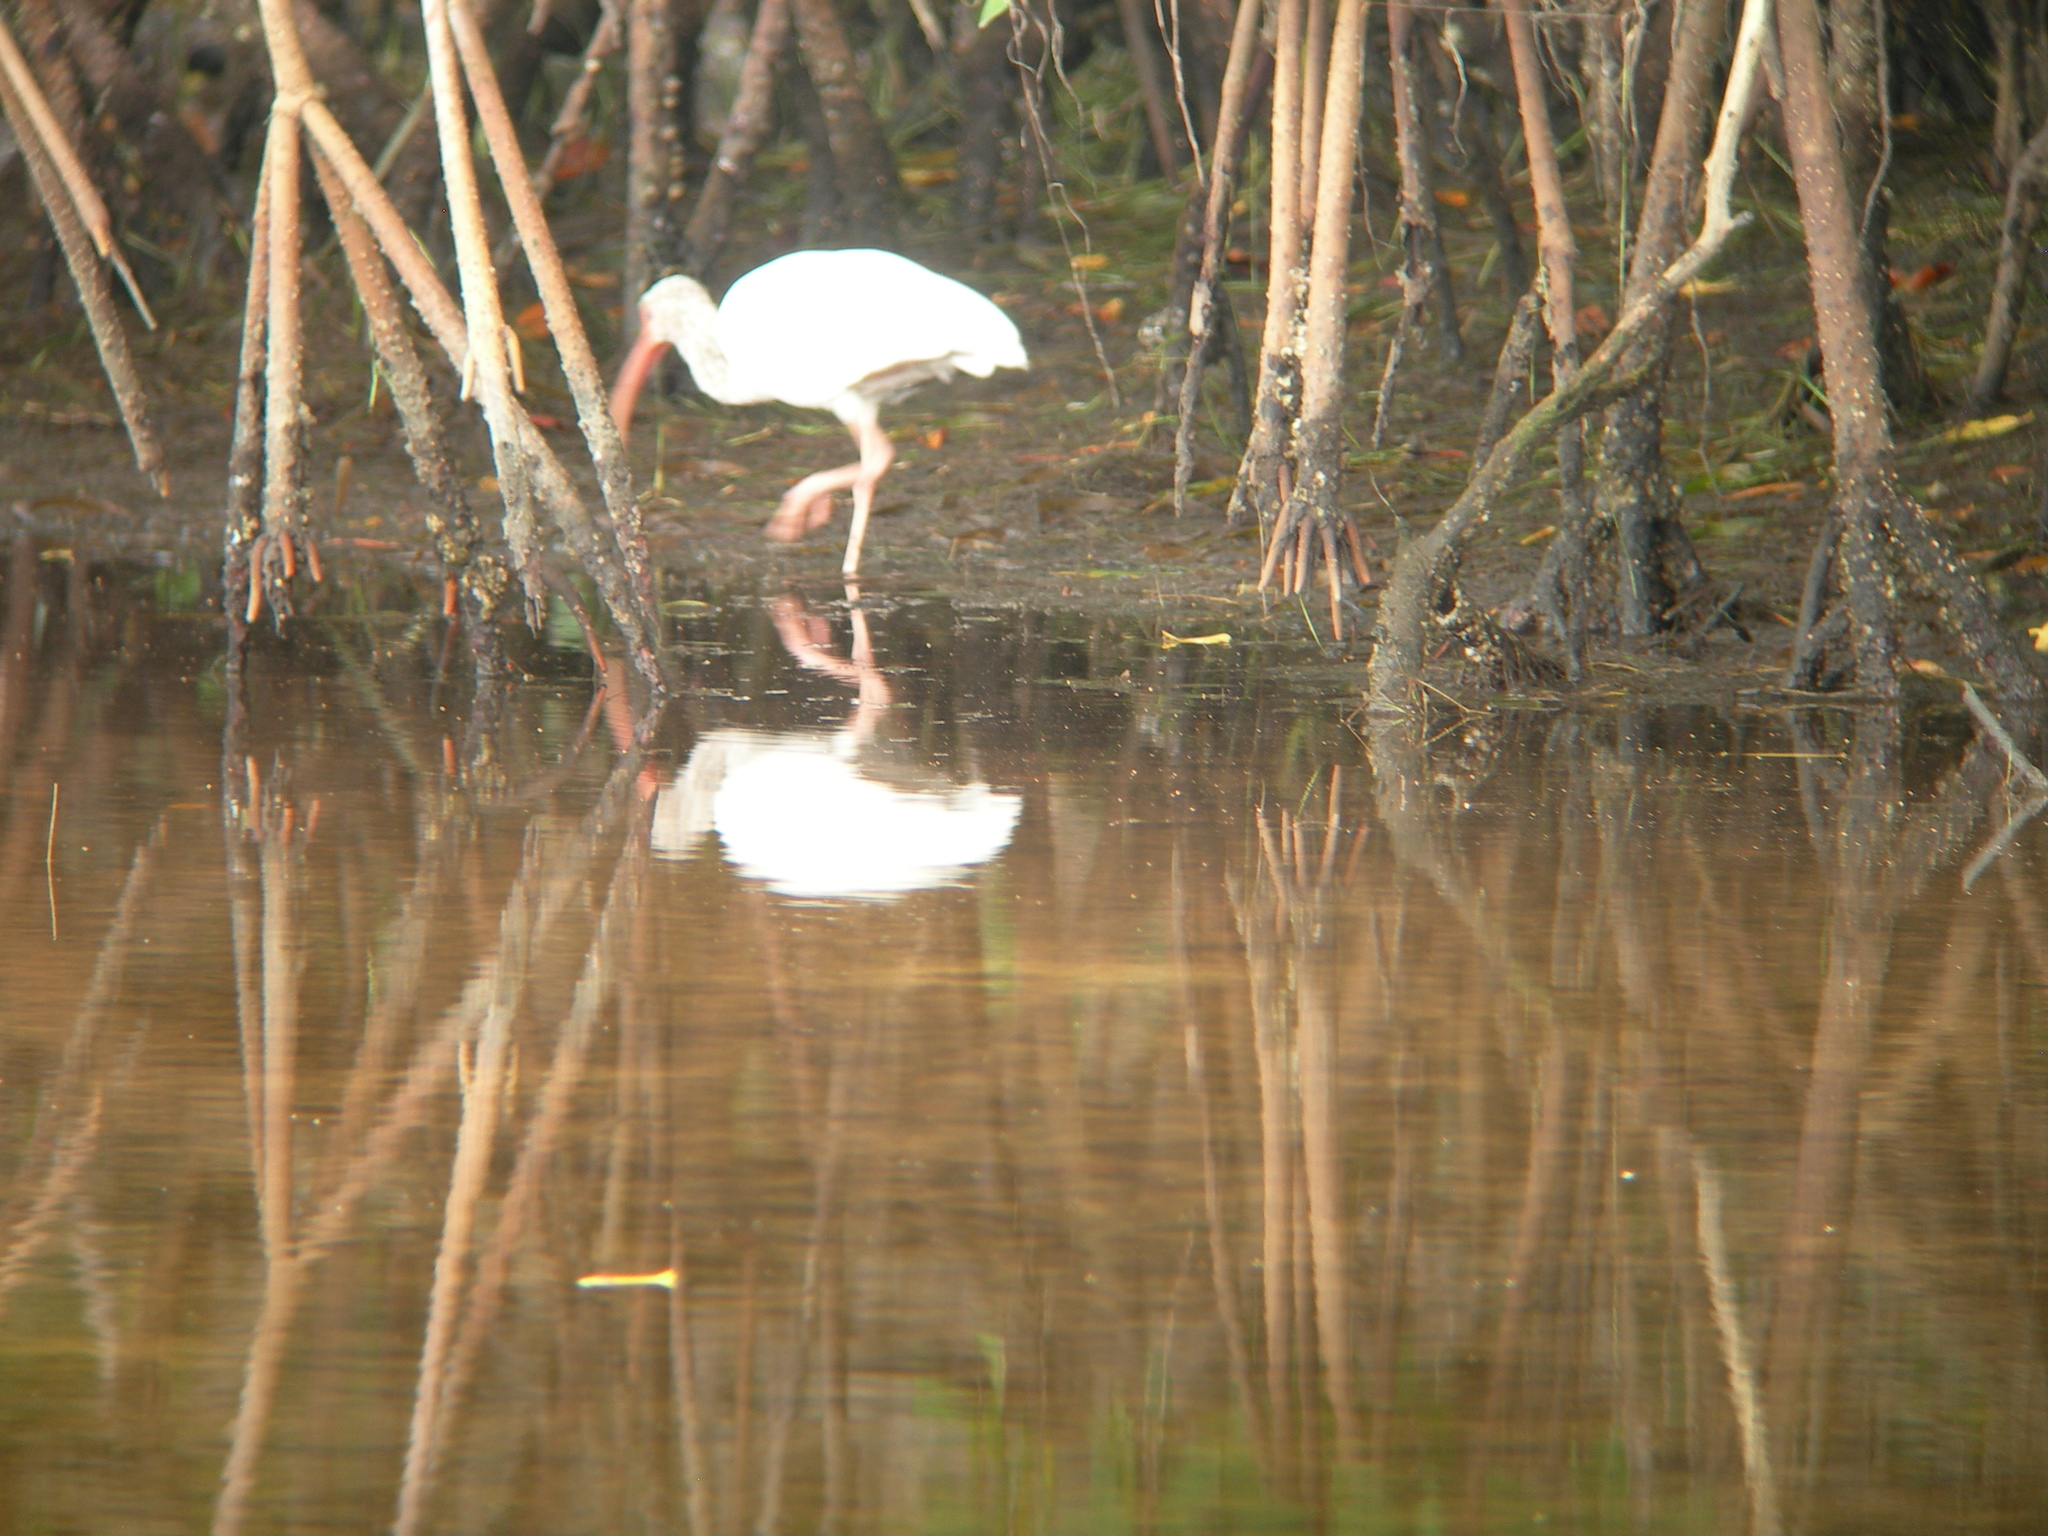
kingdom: Animalia
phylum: Chordata
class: Aves
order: Pelecaniformes
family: Threskiornithidae
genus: Eudocimus
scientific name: Eudocimus albus
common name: White ibis
